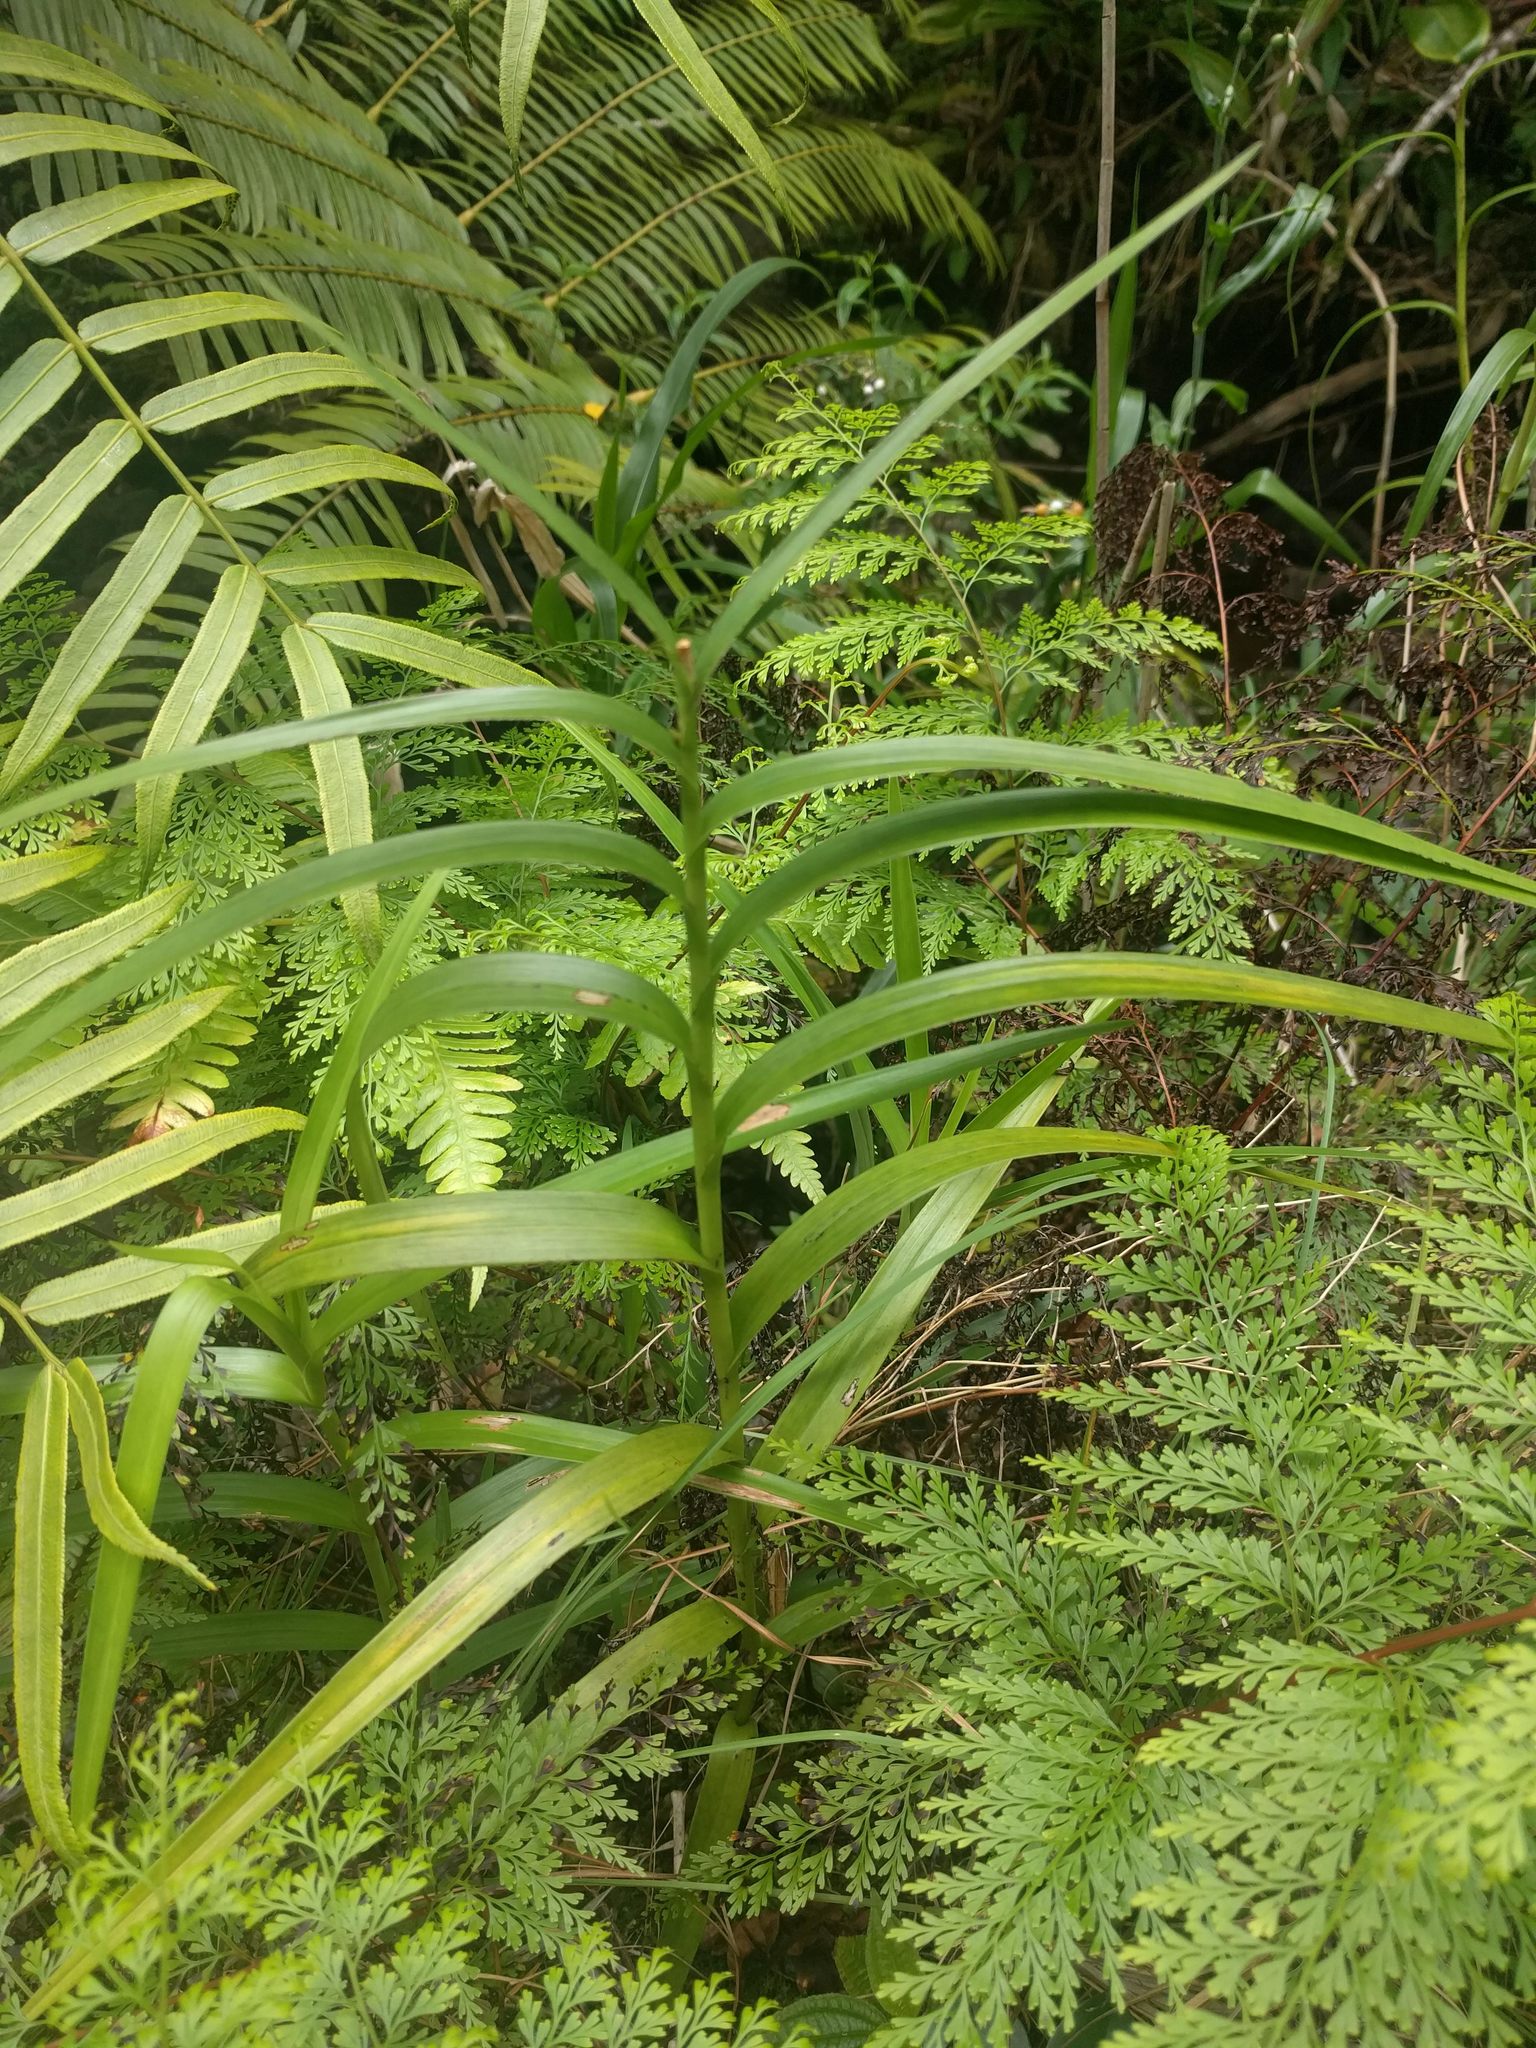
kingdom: Plantae
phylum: Tracheophyta
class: Liliopsida
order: Asparagales
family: Orchidaceae
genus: Arundina
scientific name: Arundina graminifolia
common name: Bamboo orchid
